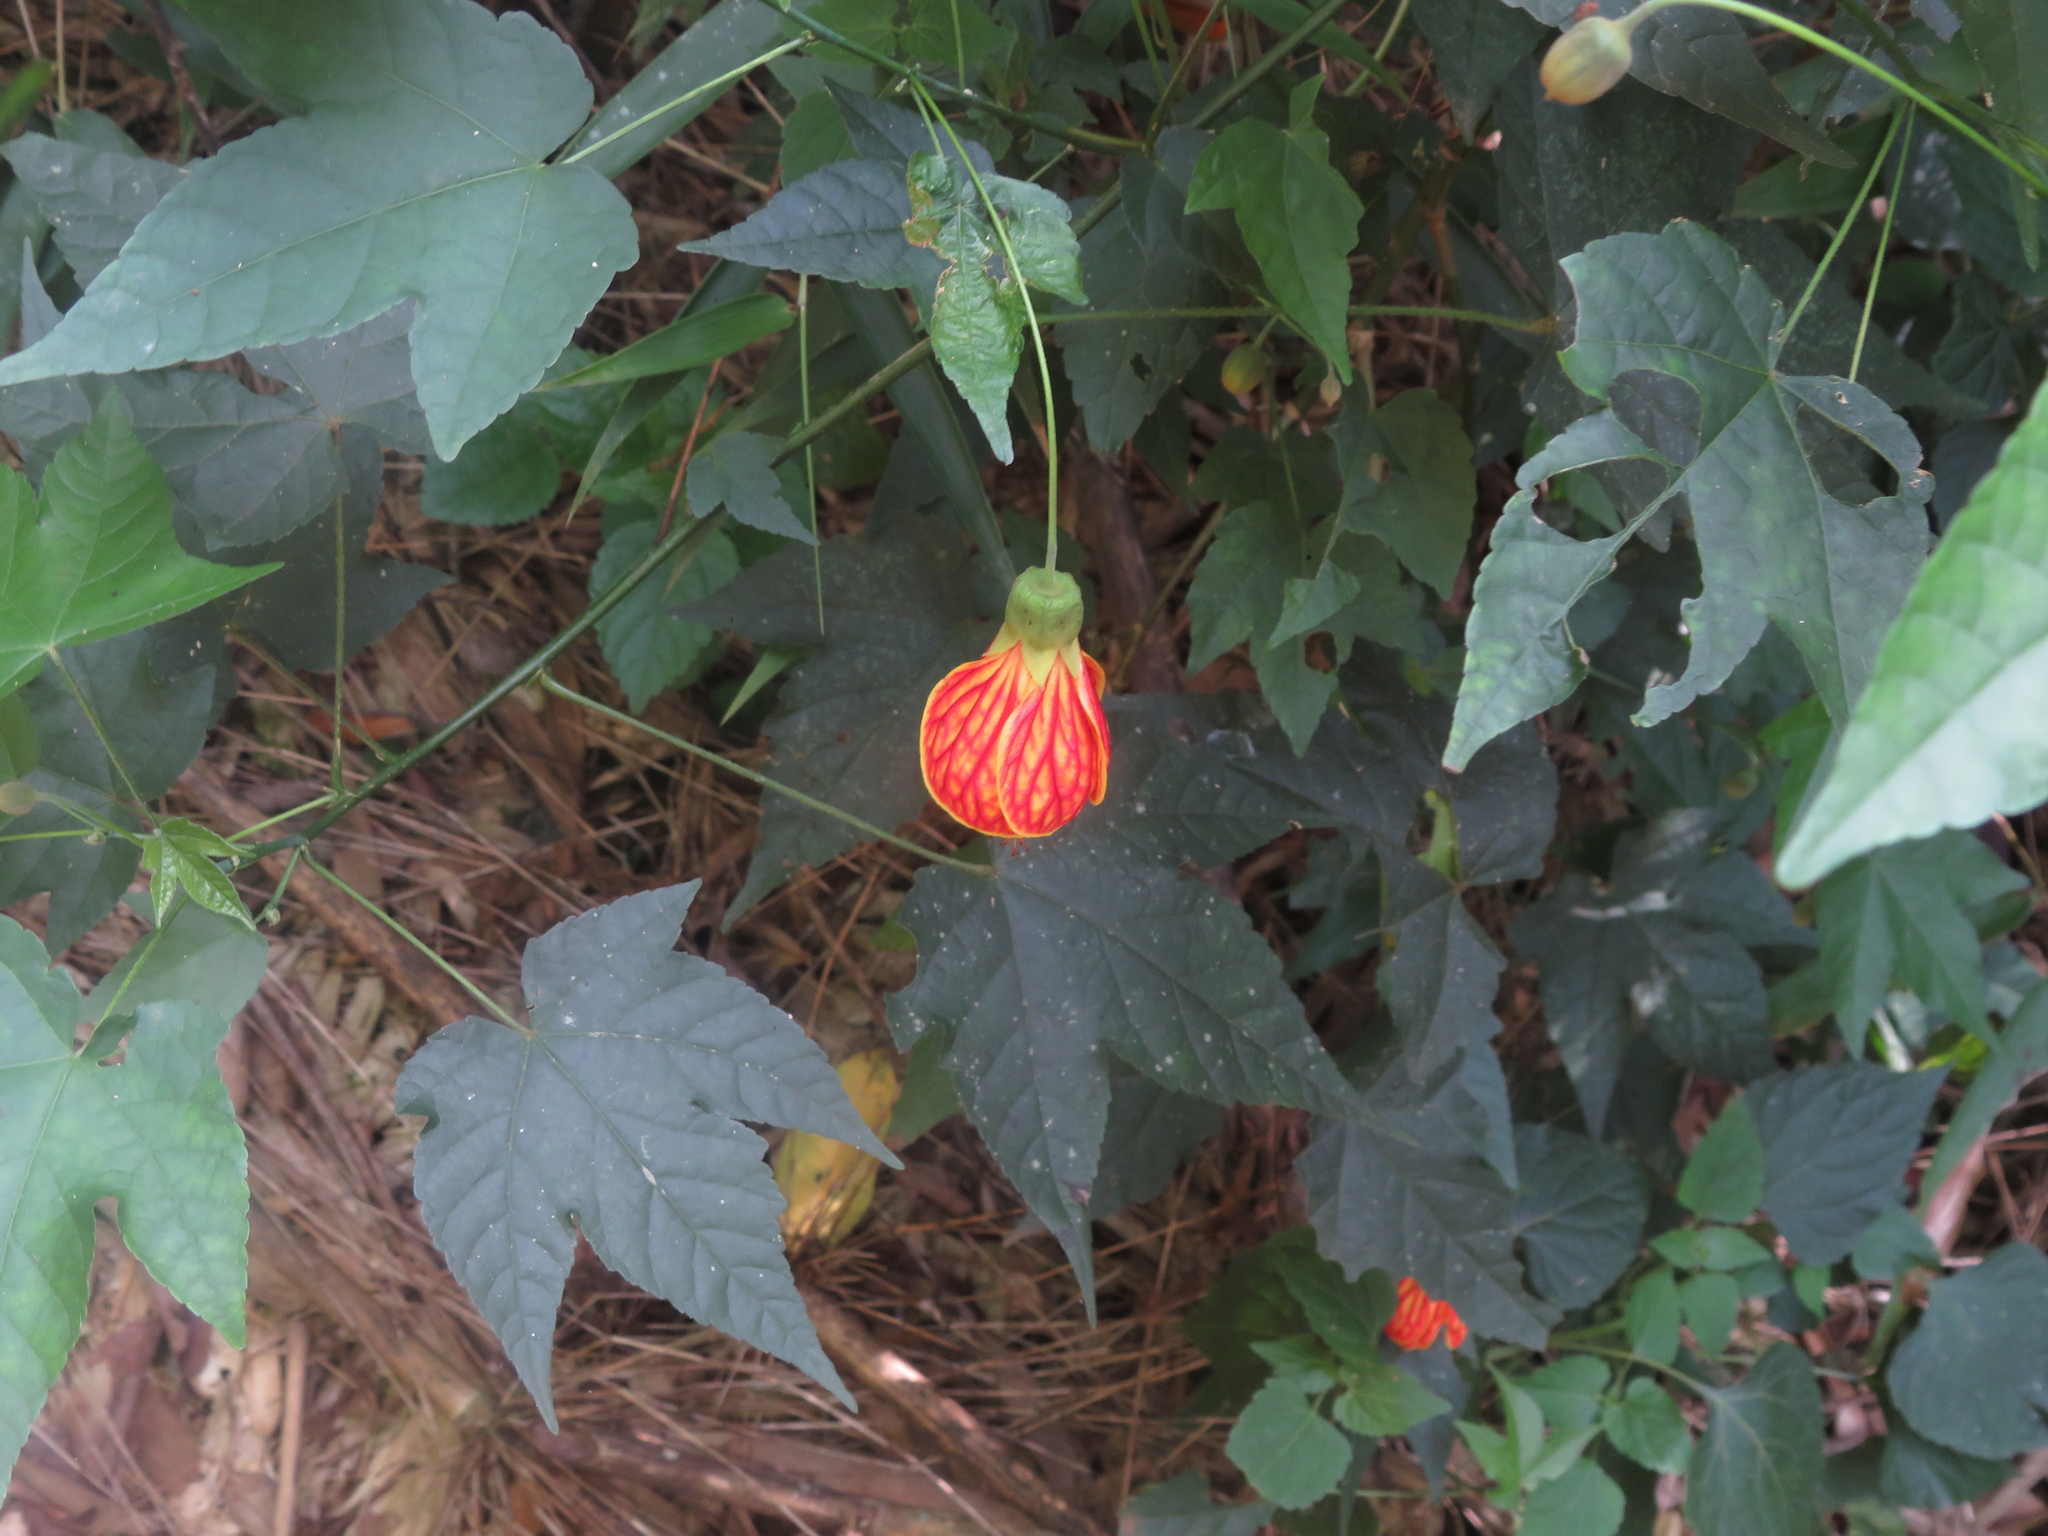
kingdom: Plantae
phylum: Tracheophyta
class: Magnoliopsida
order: Malvales
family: Malvaceae
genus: Callianthe
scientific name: Callianthe picta
